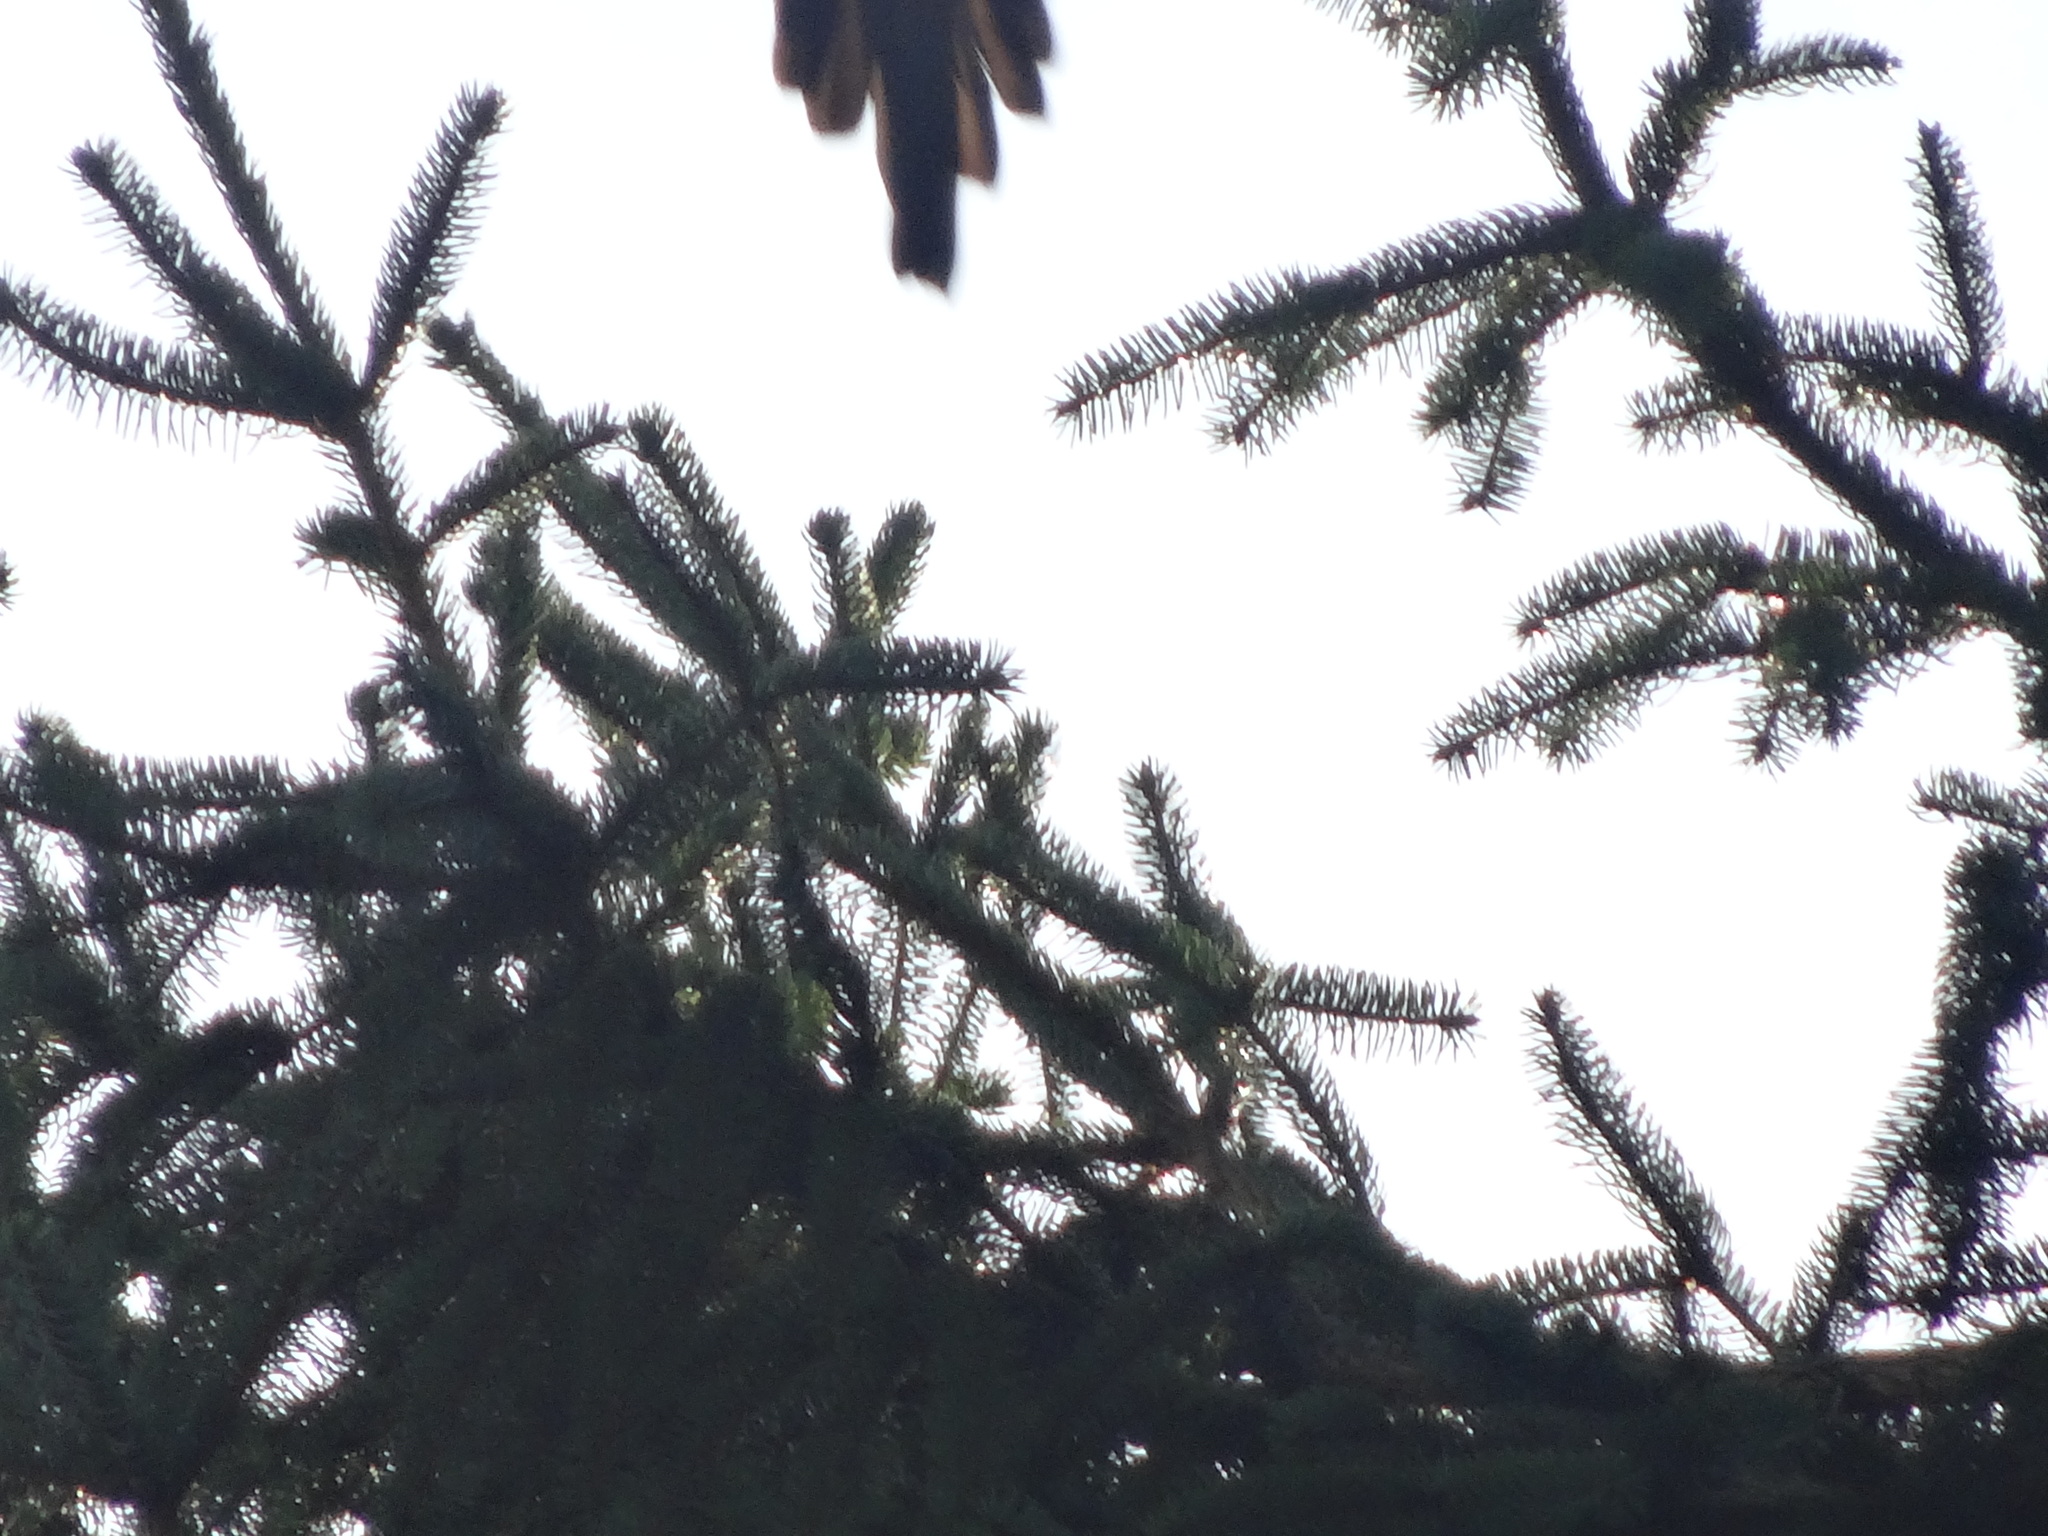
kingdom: Animalia
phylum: Chordata
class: Aves
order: Passeriformes
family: Corvidae
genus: Pica
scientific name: Pica pica
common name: Eurasian magpie
